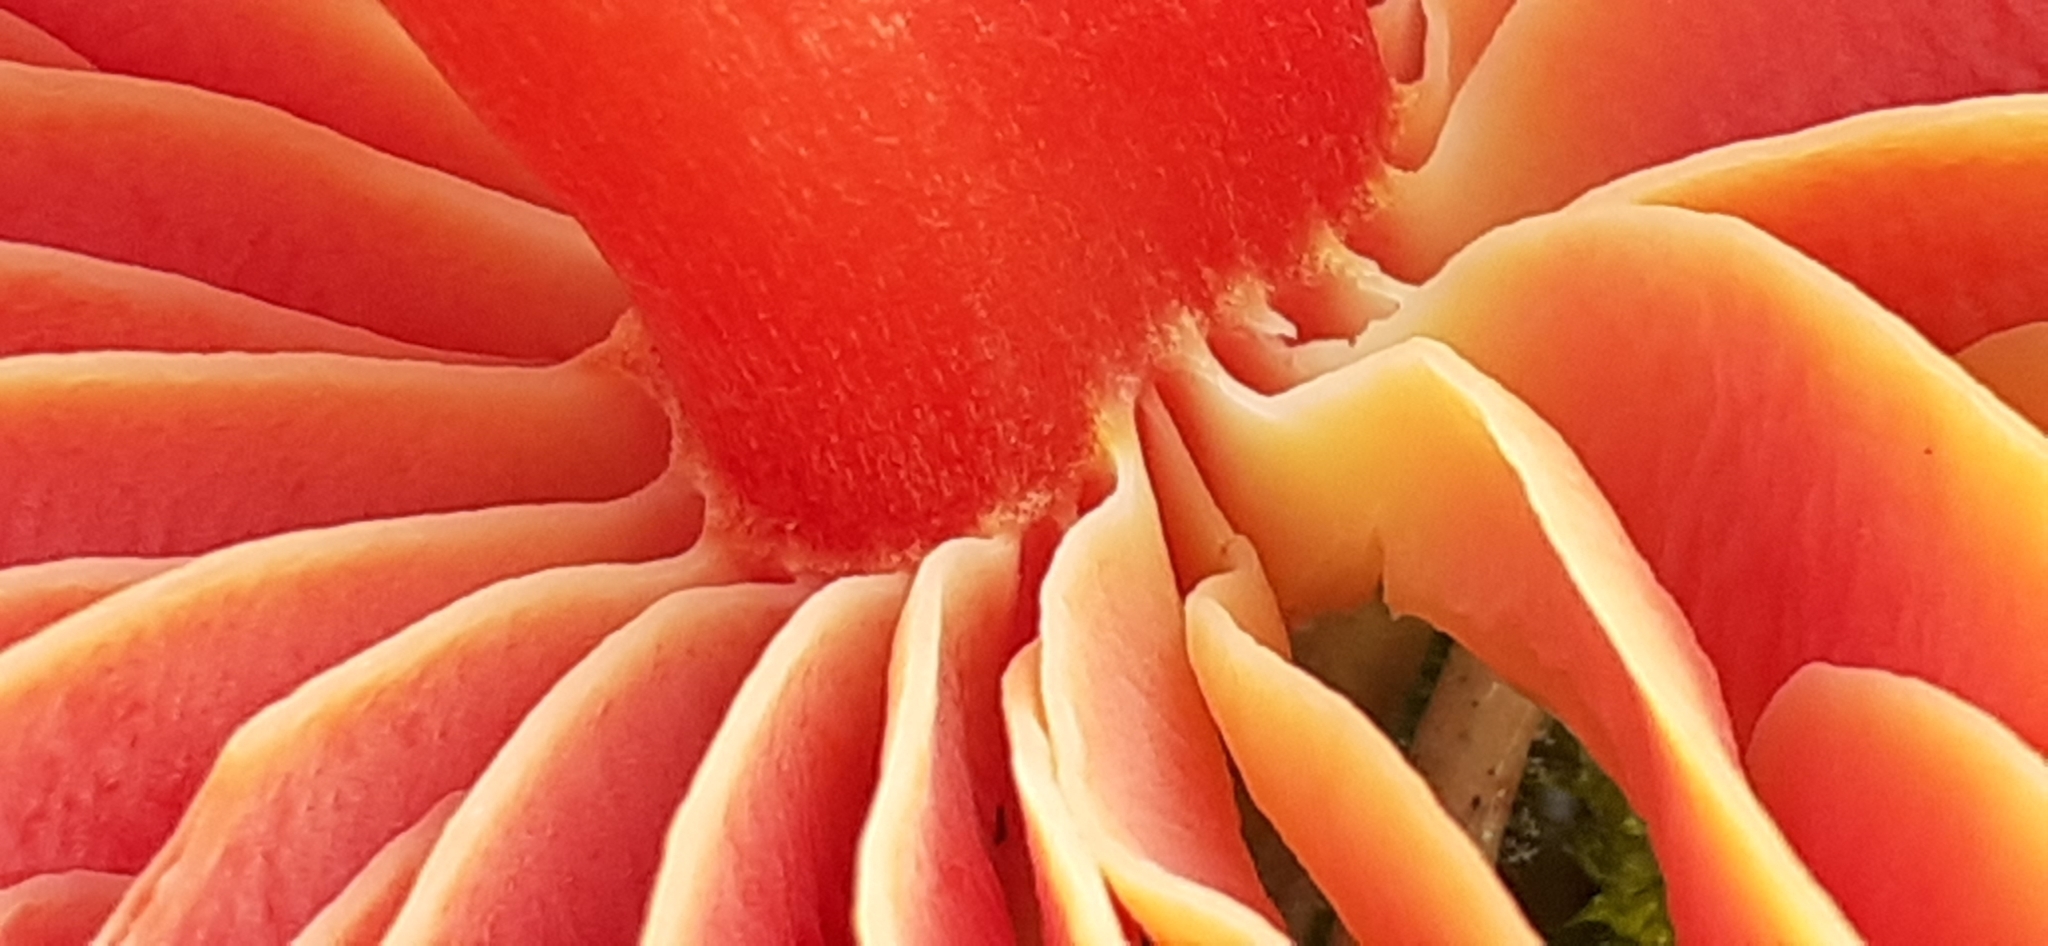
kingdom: Fungi
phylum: Basidiomycota
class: Agaricomycetes
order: Agaricales
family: Hygrophoraceae
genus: Hygrocybe
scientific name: Hygrocybe coccinea
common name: Scarlet hood
